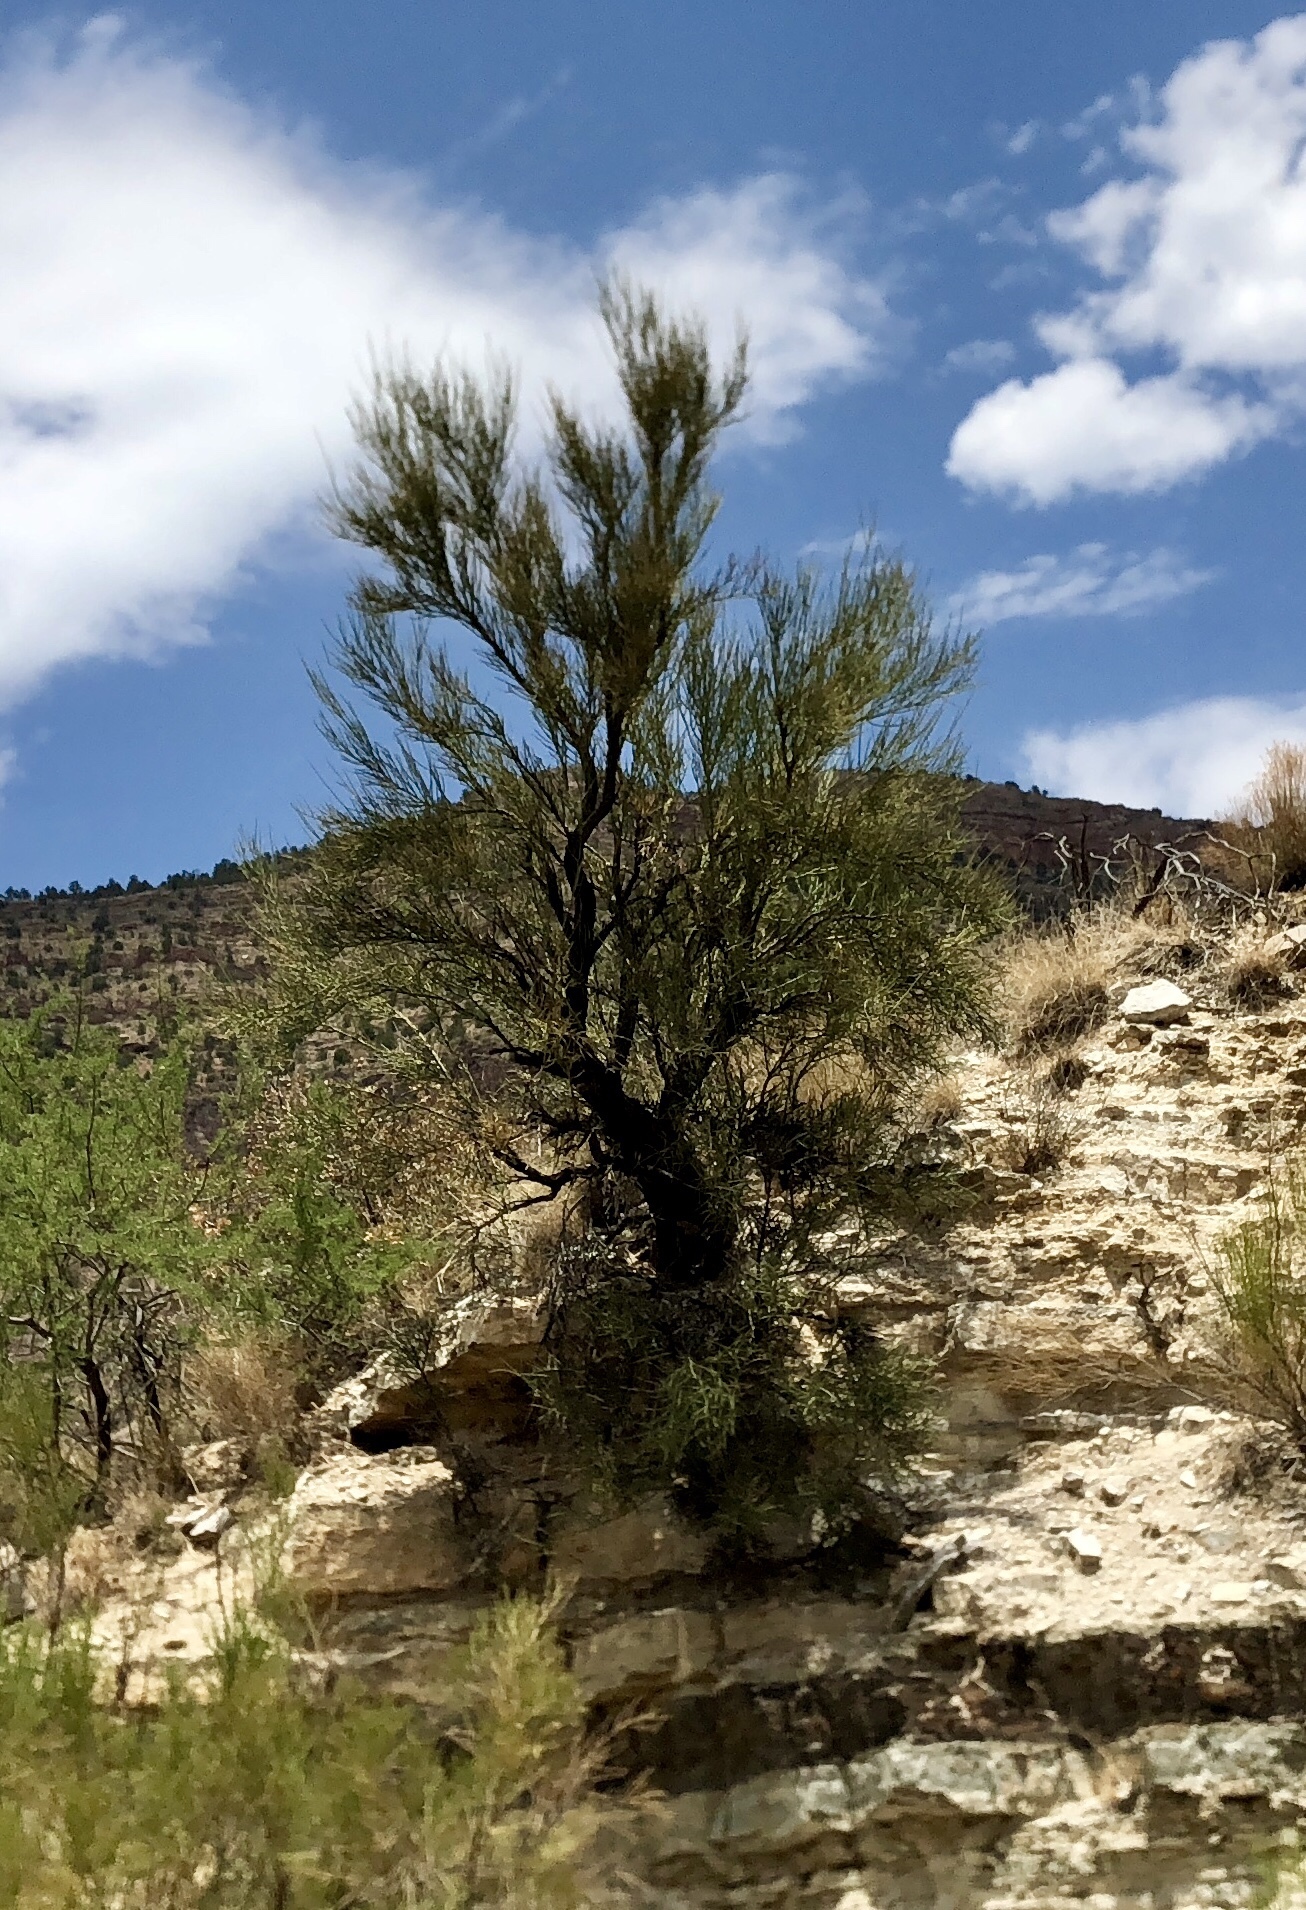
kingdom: Plantae
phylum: Tracheophyta
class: Magnoliopsida
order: Celastrales
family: Celastraceae
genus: Canotia
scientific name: Canotia holacantha
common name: Crucifixion thorns
